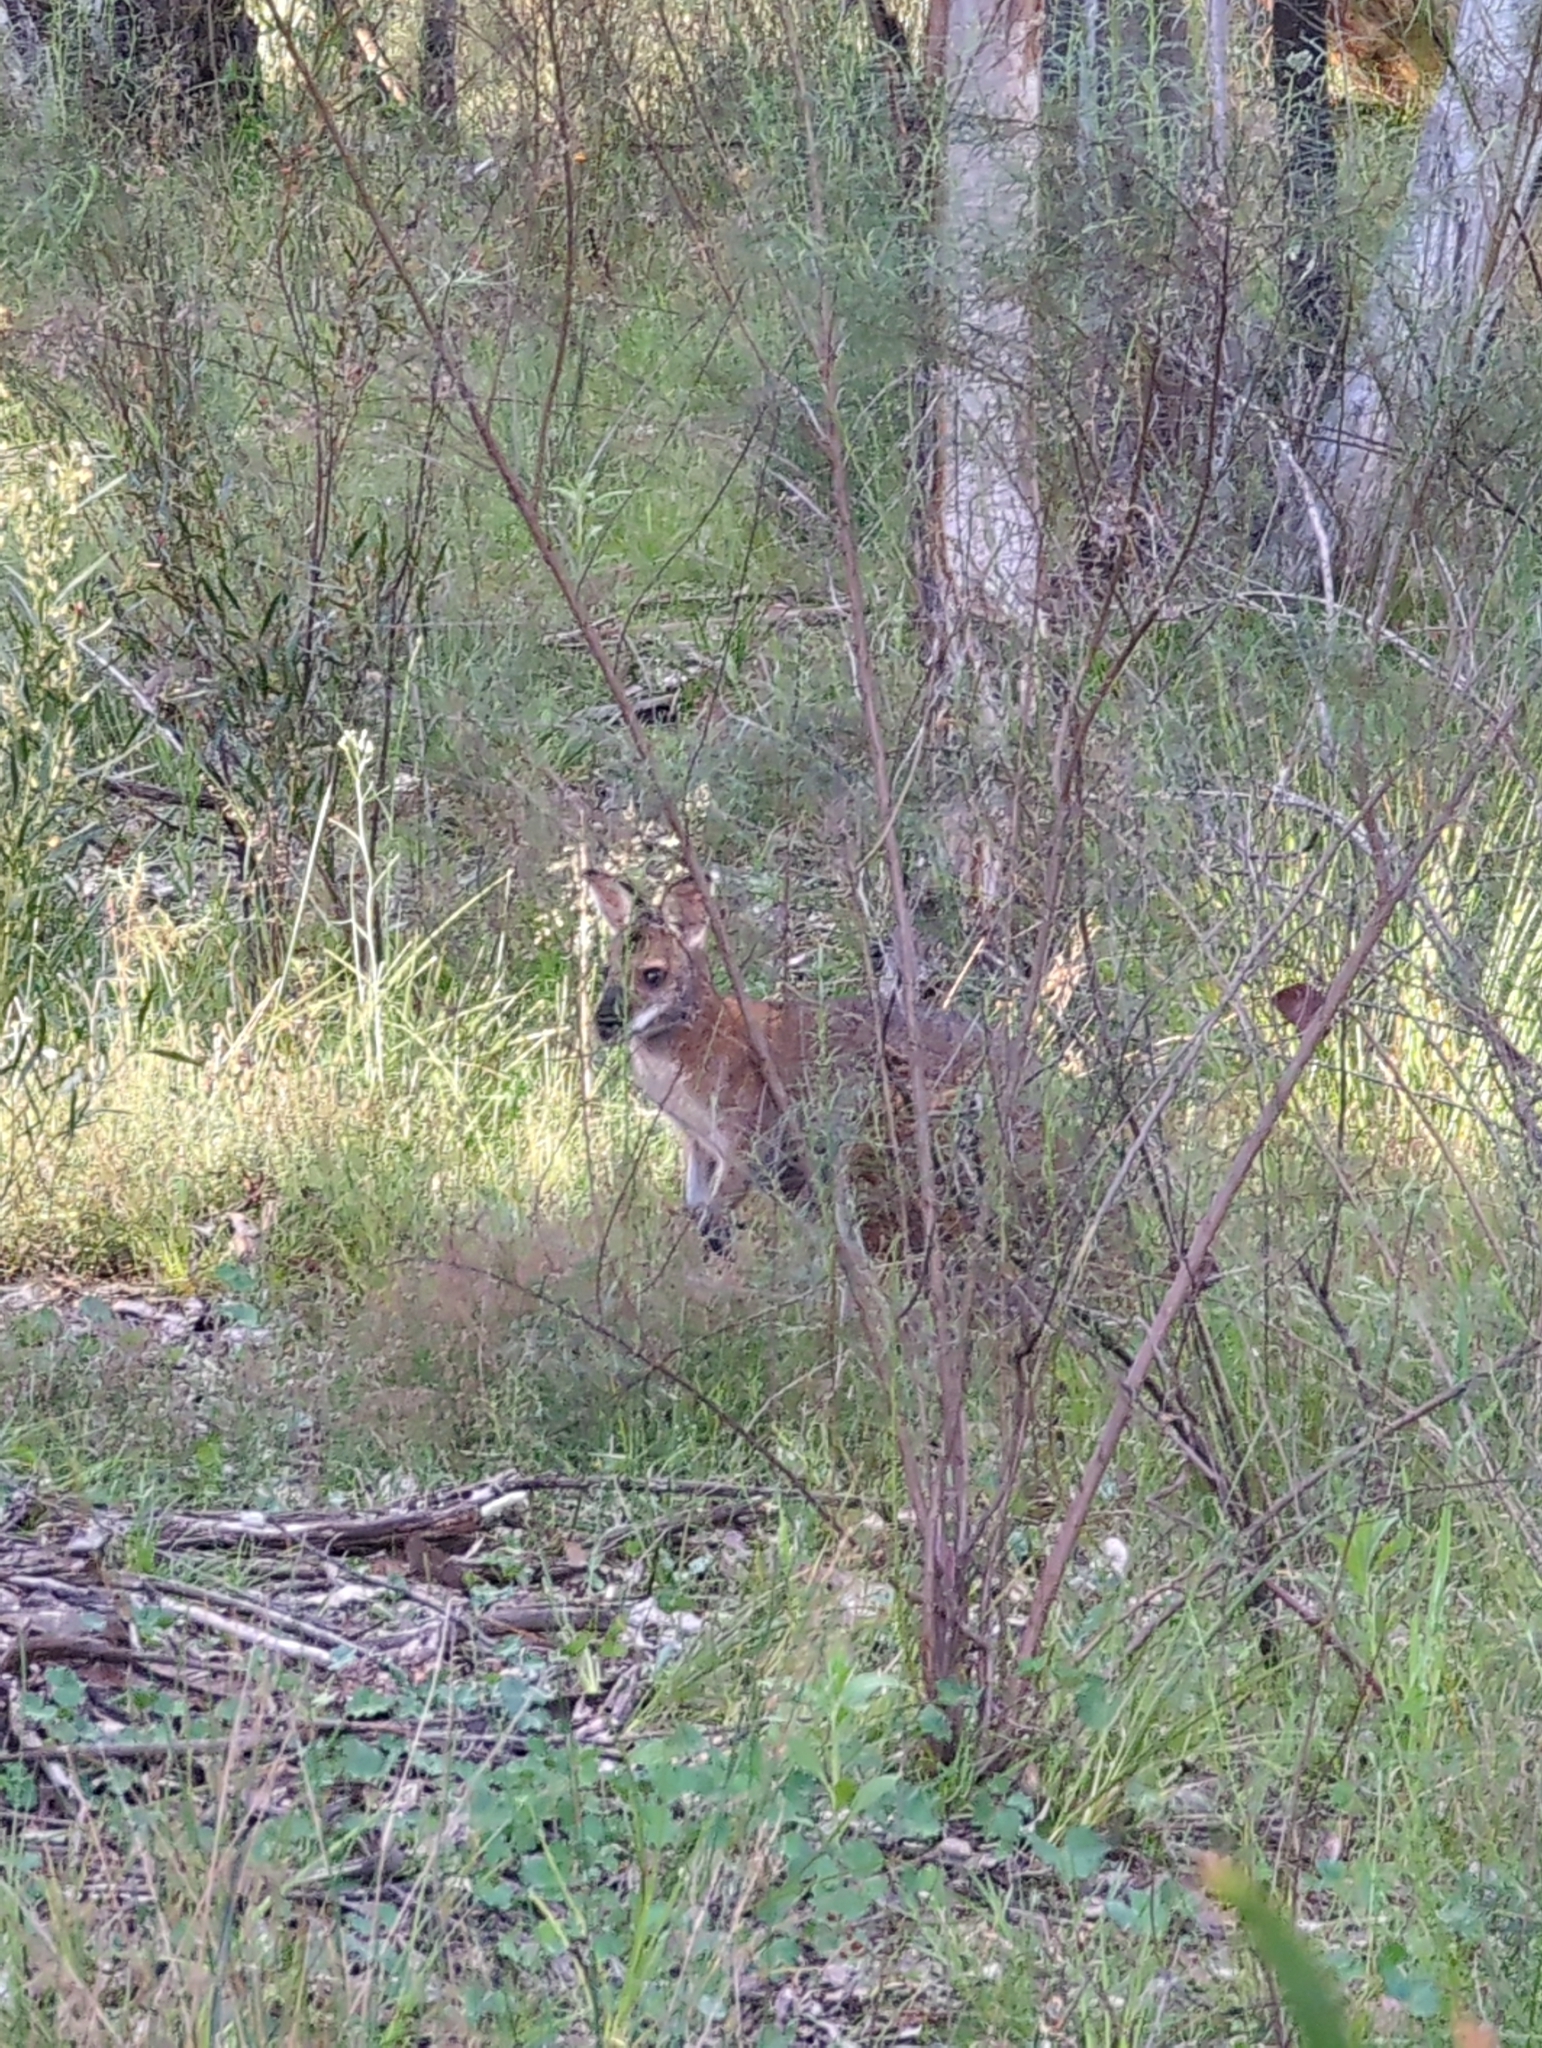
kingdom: Animalia
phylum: Chordata
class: Mammalia
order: Diprotodontia
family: Macropodidae
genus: Notamacropus
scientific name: Notamacropus rufogriseus
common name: Red-necked wallaby
